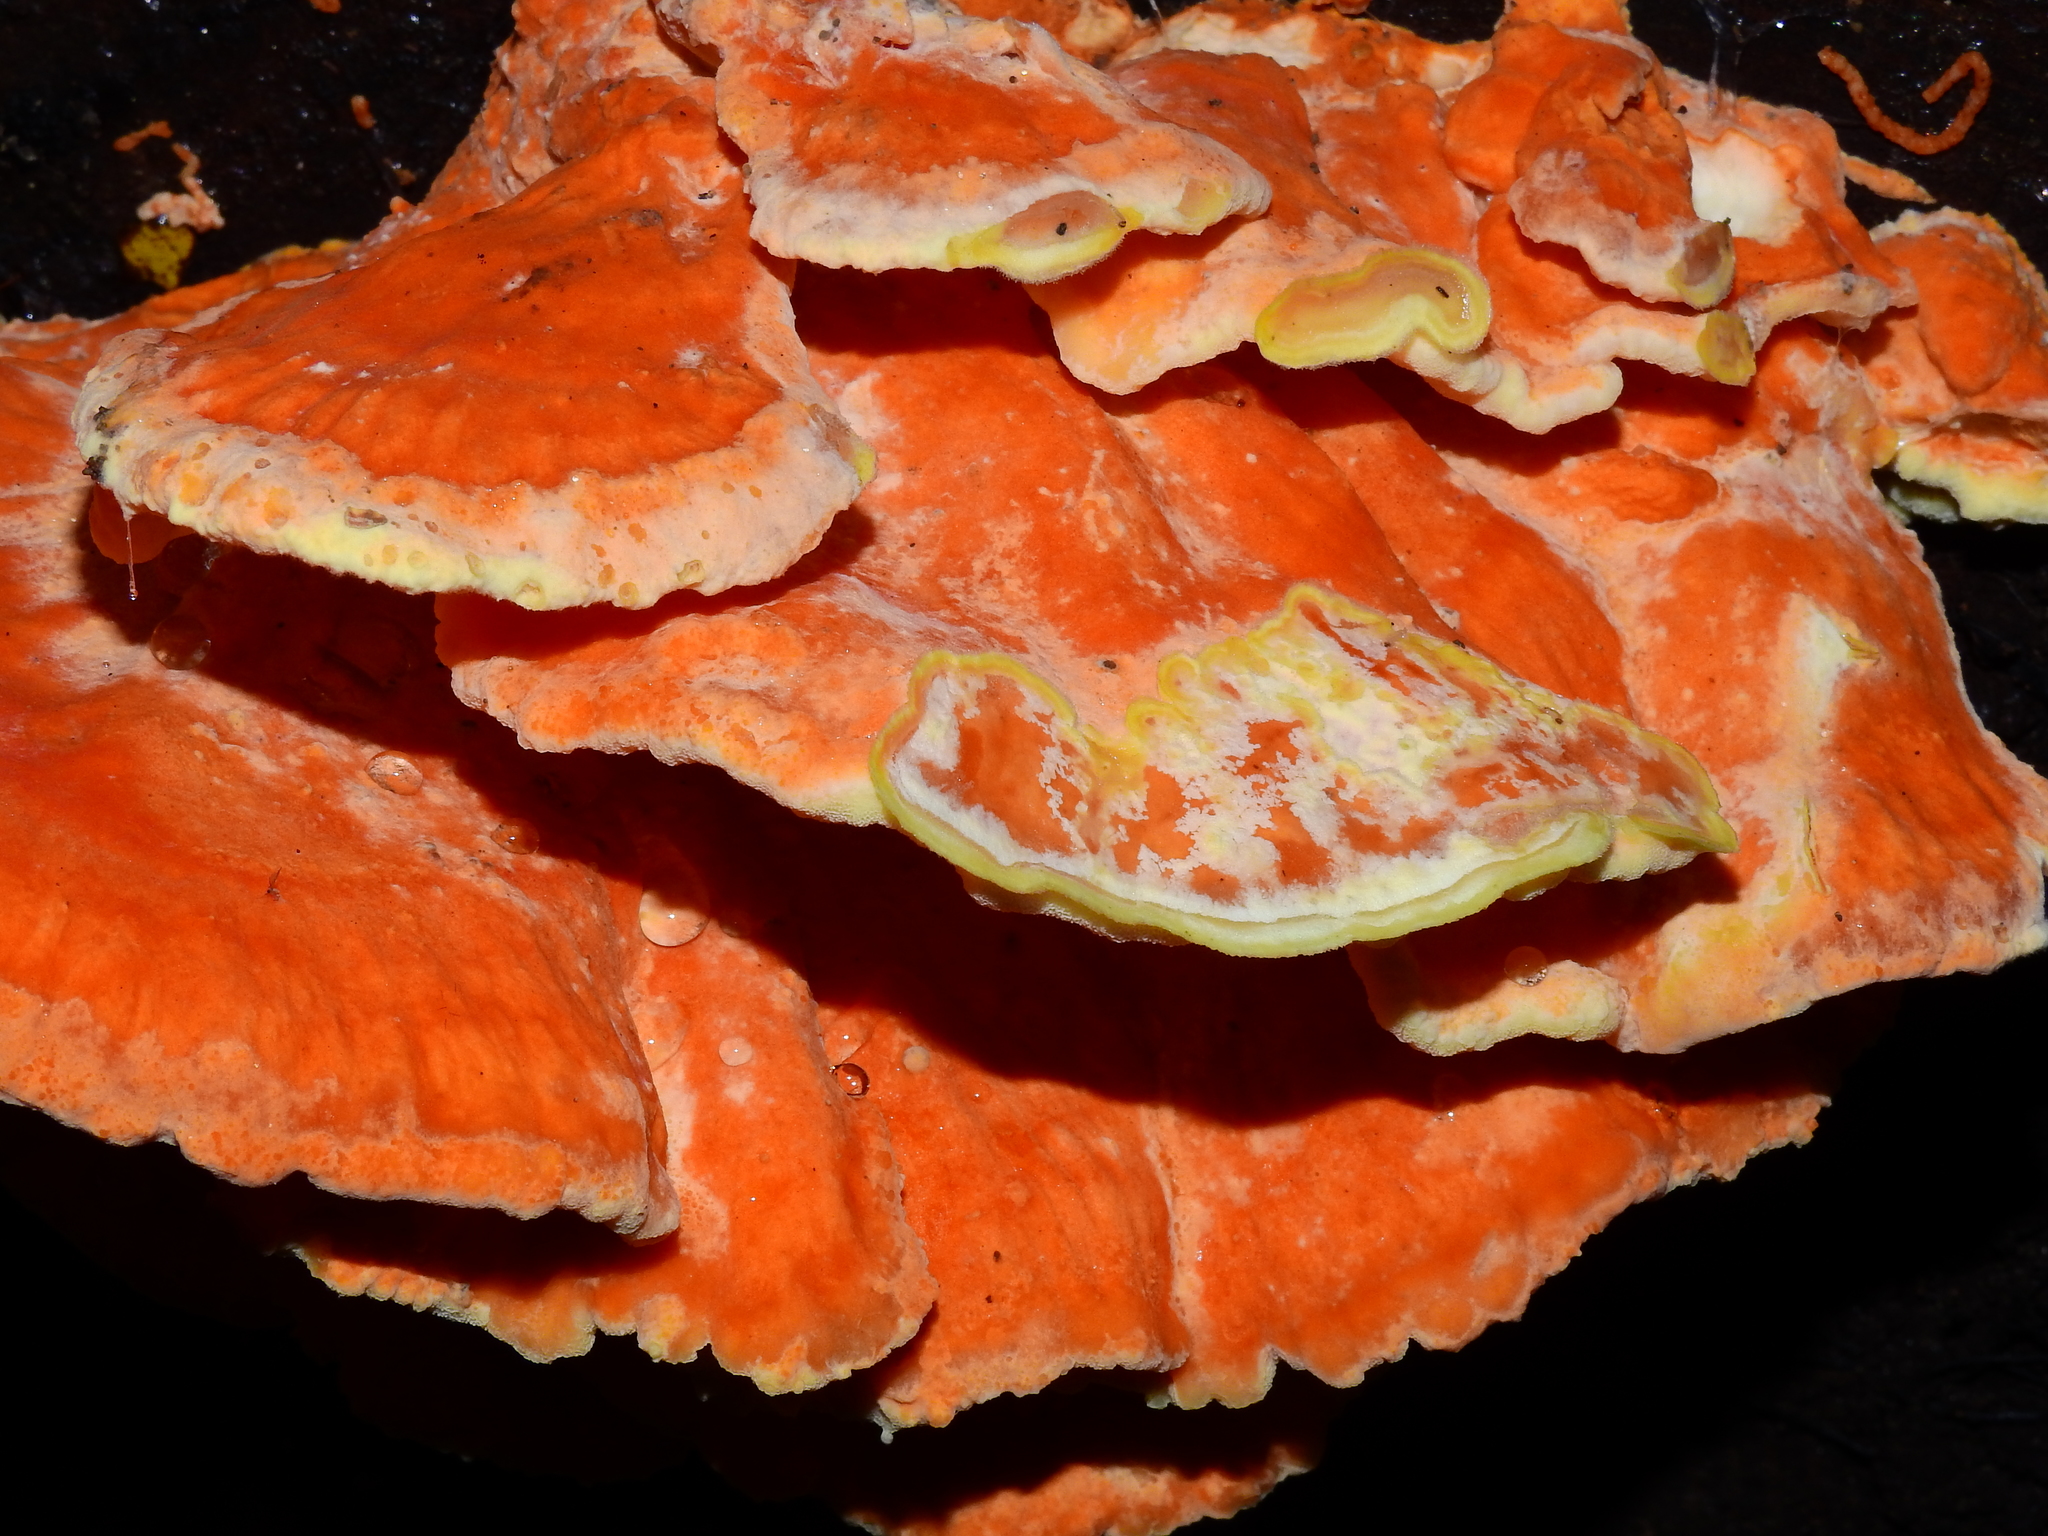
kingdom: Fungi
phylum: Basidiomycota
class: Agaricomycetes
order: Polyporales
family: Laetiporaceae
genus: Laetiporus
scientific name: Laetiporus sulphureus
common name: Chicken of the woods
